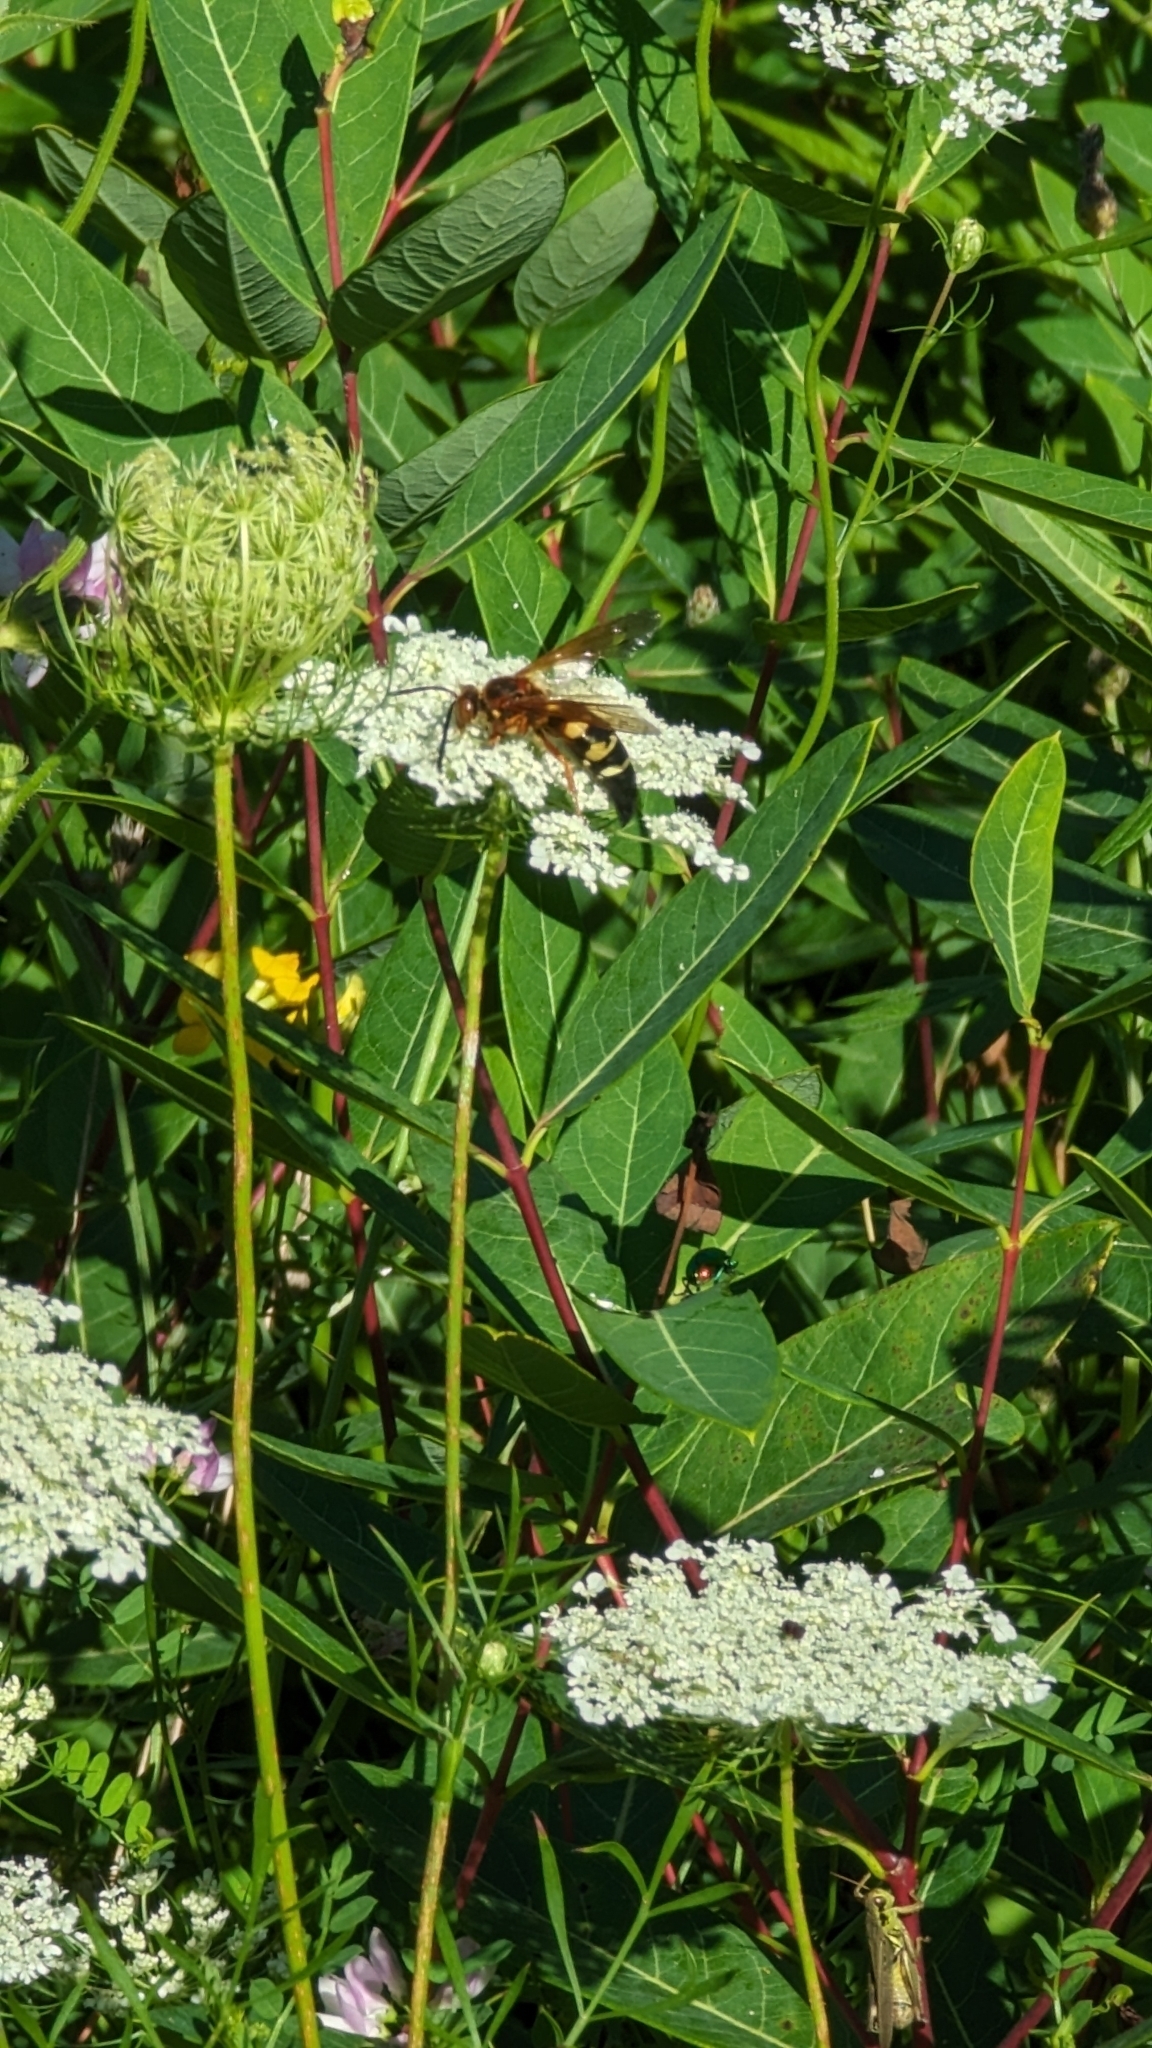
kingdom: Animalia
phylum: Arthropoda
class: Insecta
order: Hymenoptera
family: Crabronidae
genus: Sphecius
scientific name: Sphecius speciosus
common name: Cicada killer
